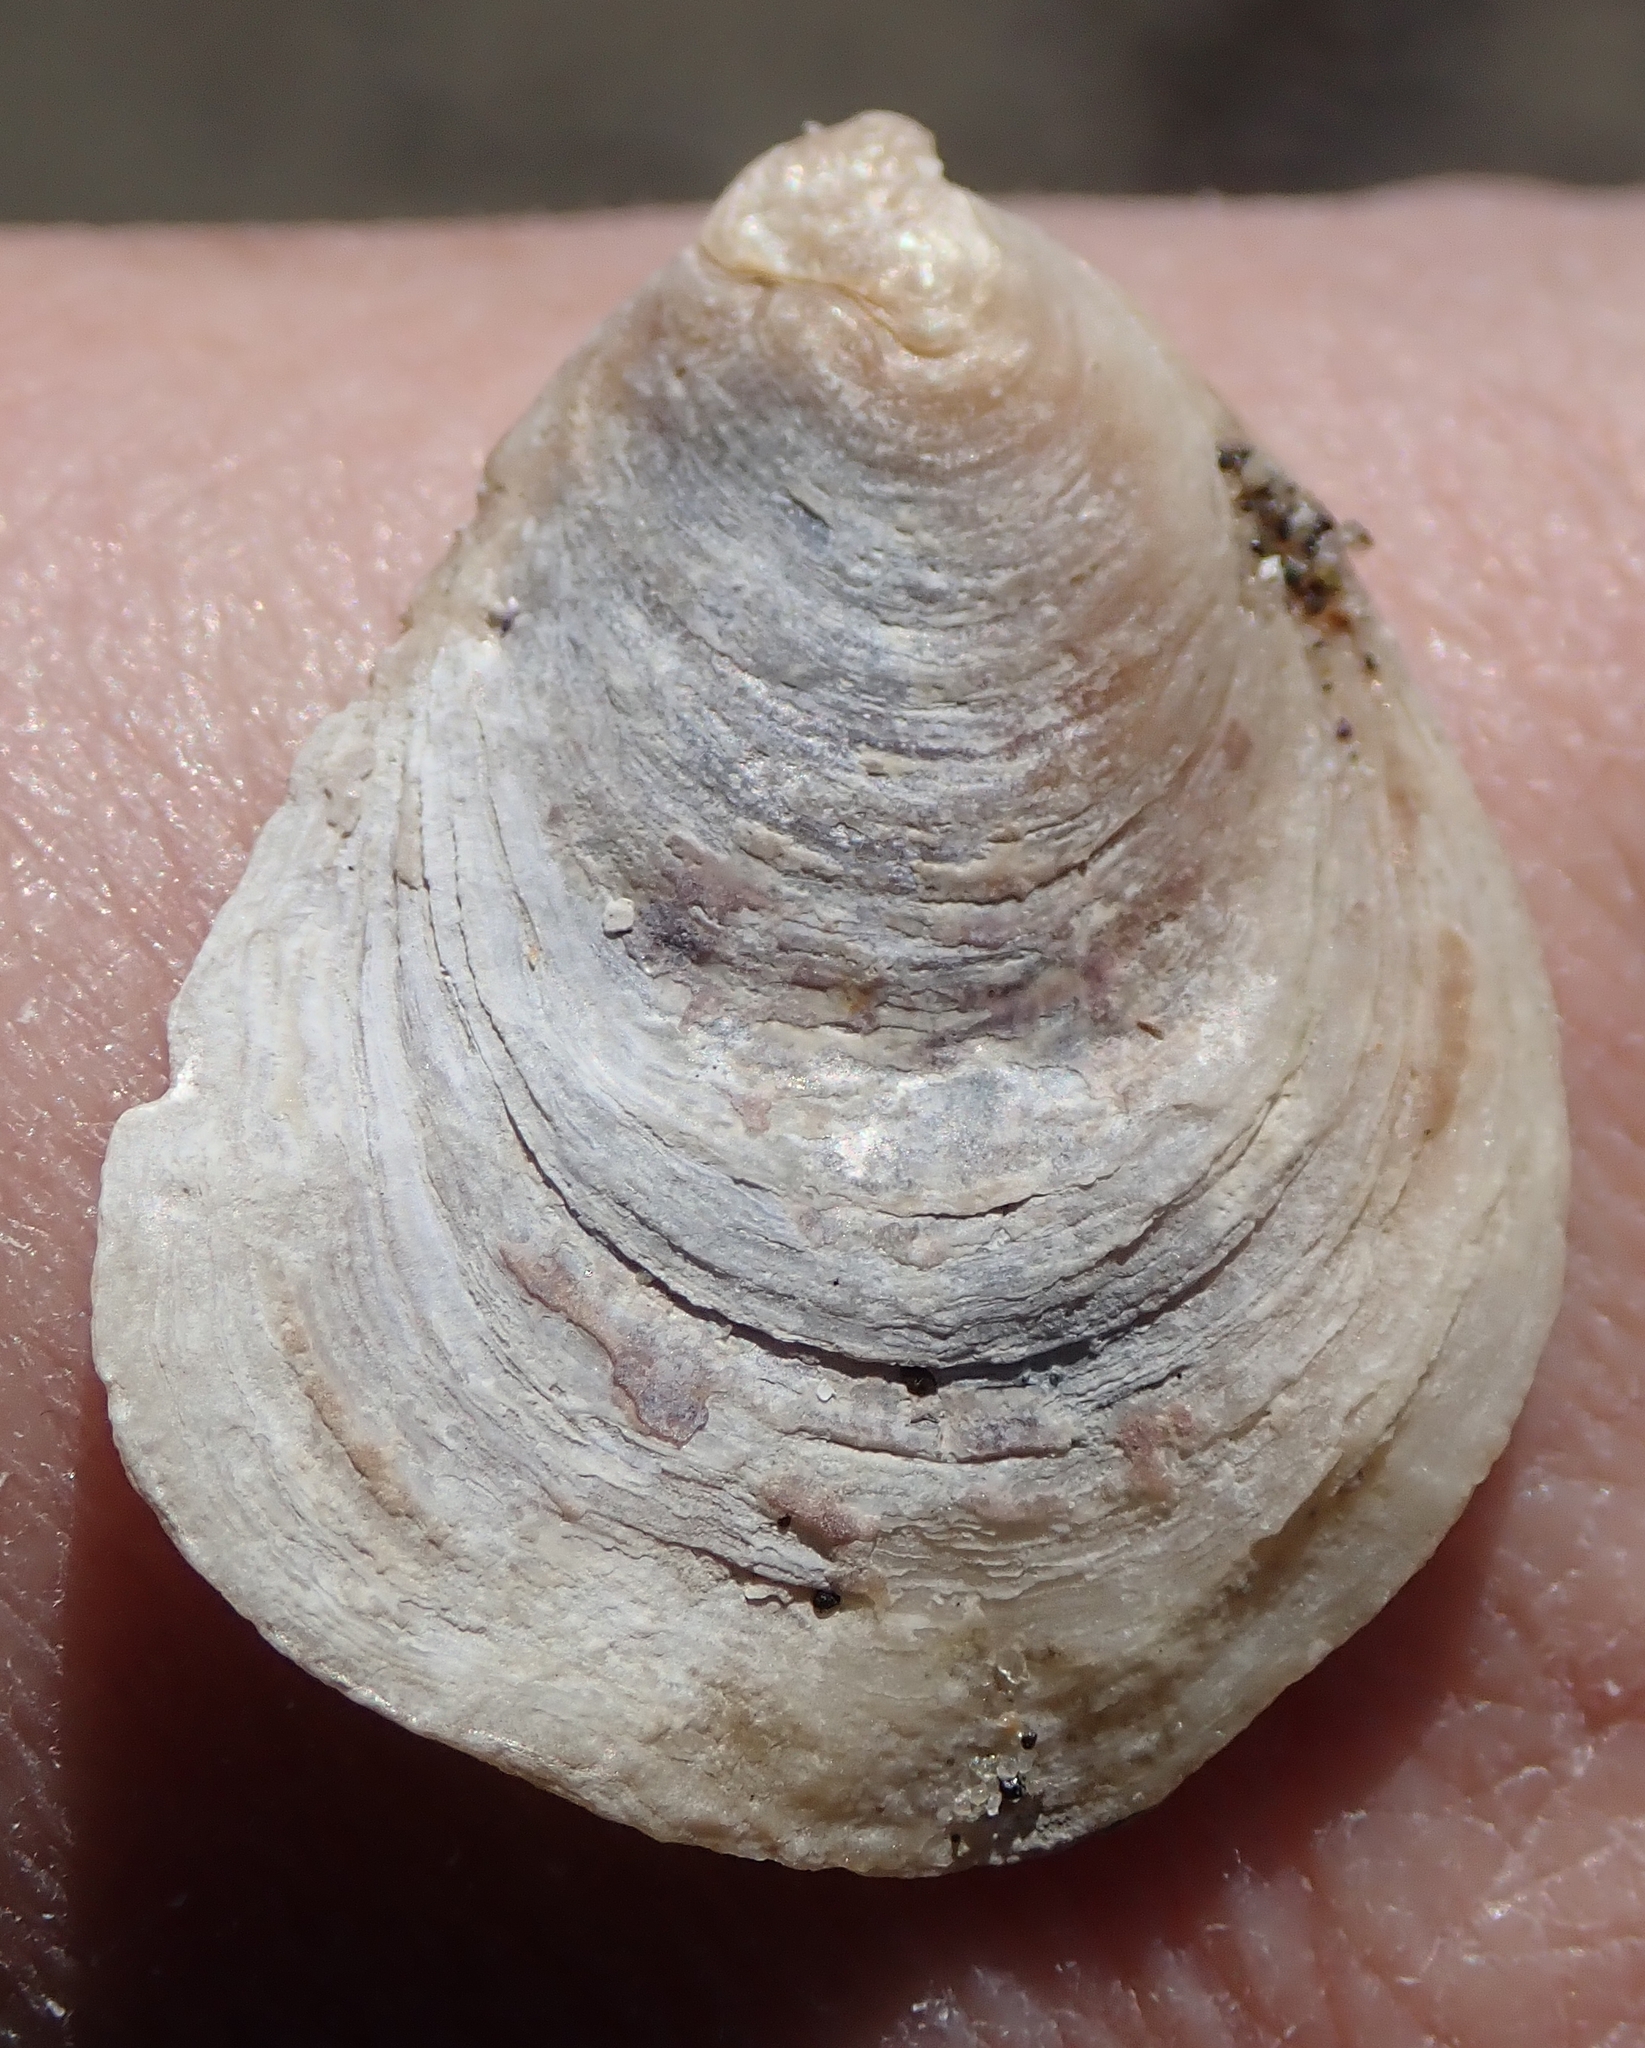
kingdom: Animalia
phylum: Mollusca
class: Bivalvia
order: Ostreida
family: Ostreidae
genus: Ostrea
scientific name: Ostrea lurida
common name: Olympia flat oyster
